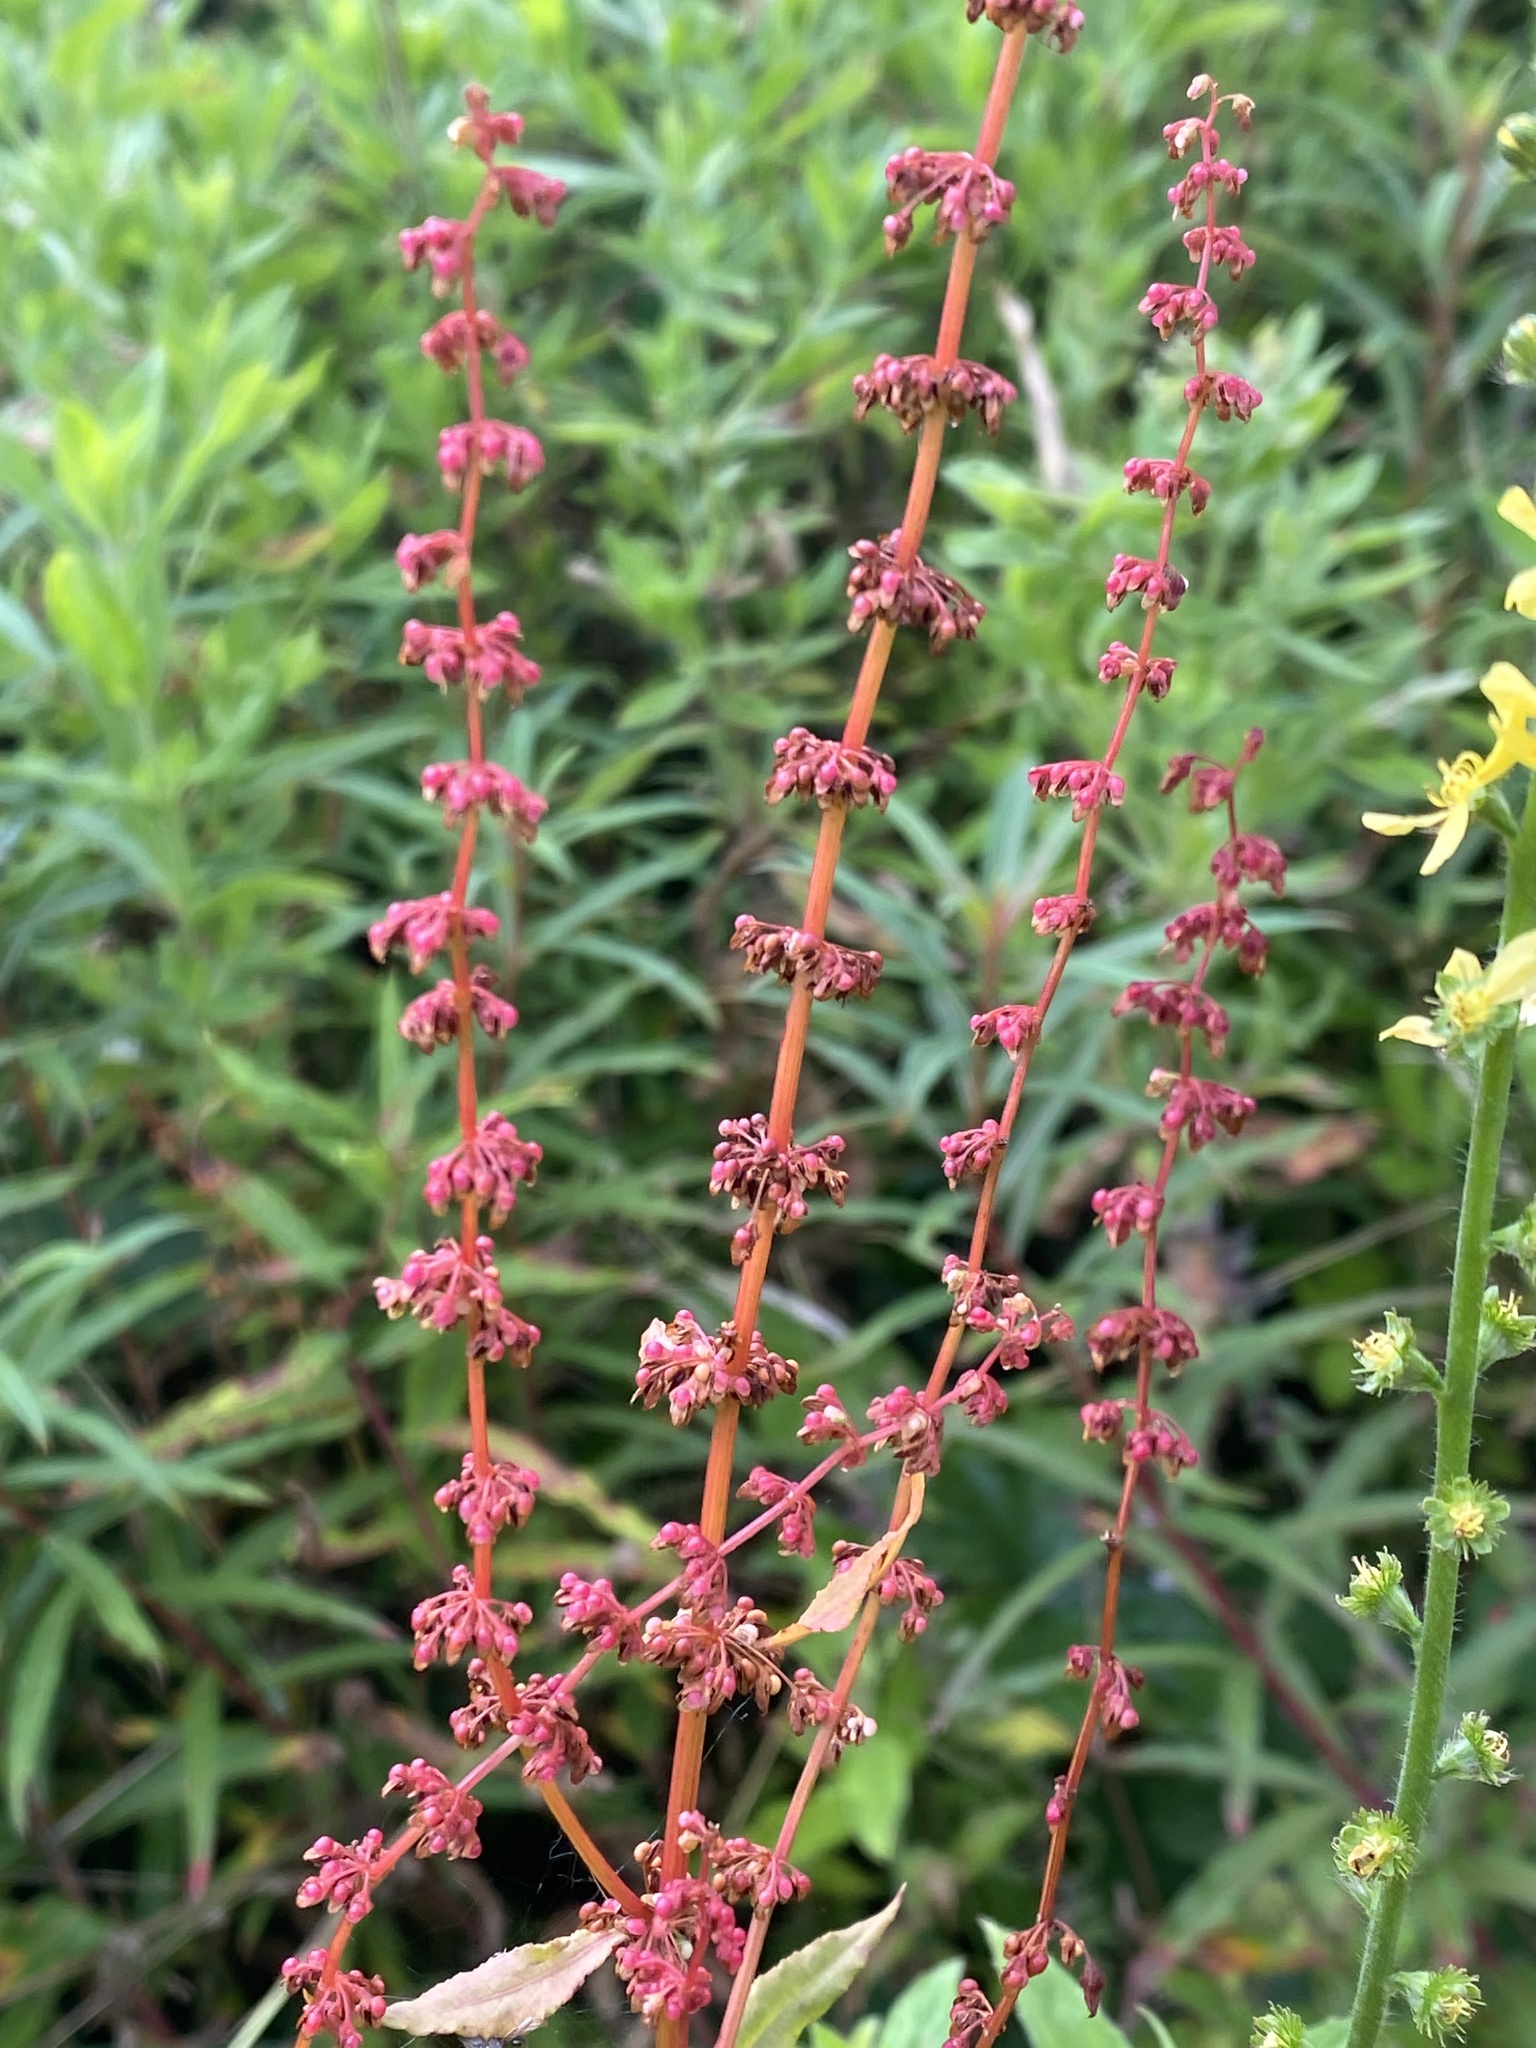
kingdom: Plantae
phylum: Tracheophyta
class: Magnoliopsida
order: Caryophyllales
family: Polygonaceae
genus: Rumex
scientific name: Rumex sanguineus
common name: Wood dock
